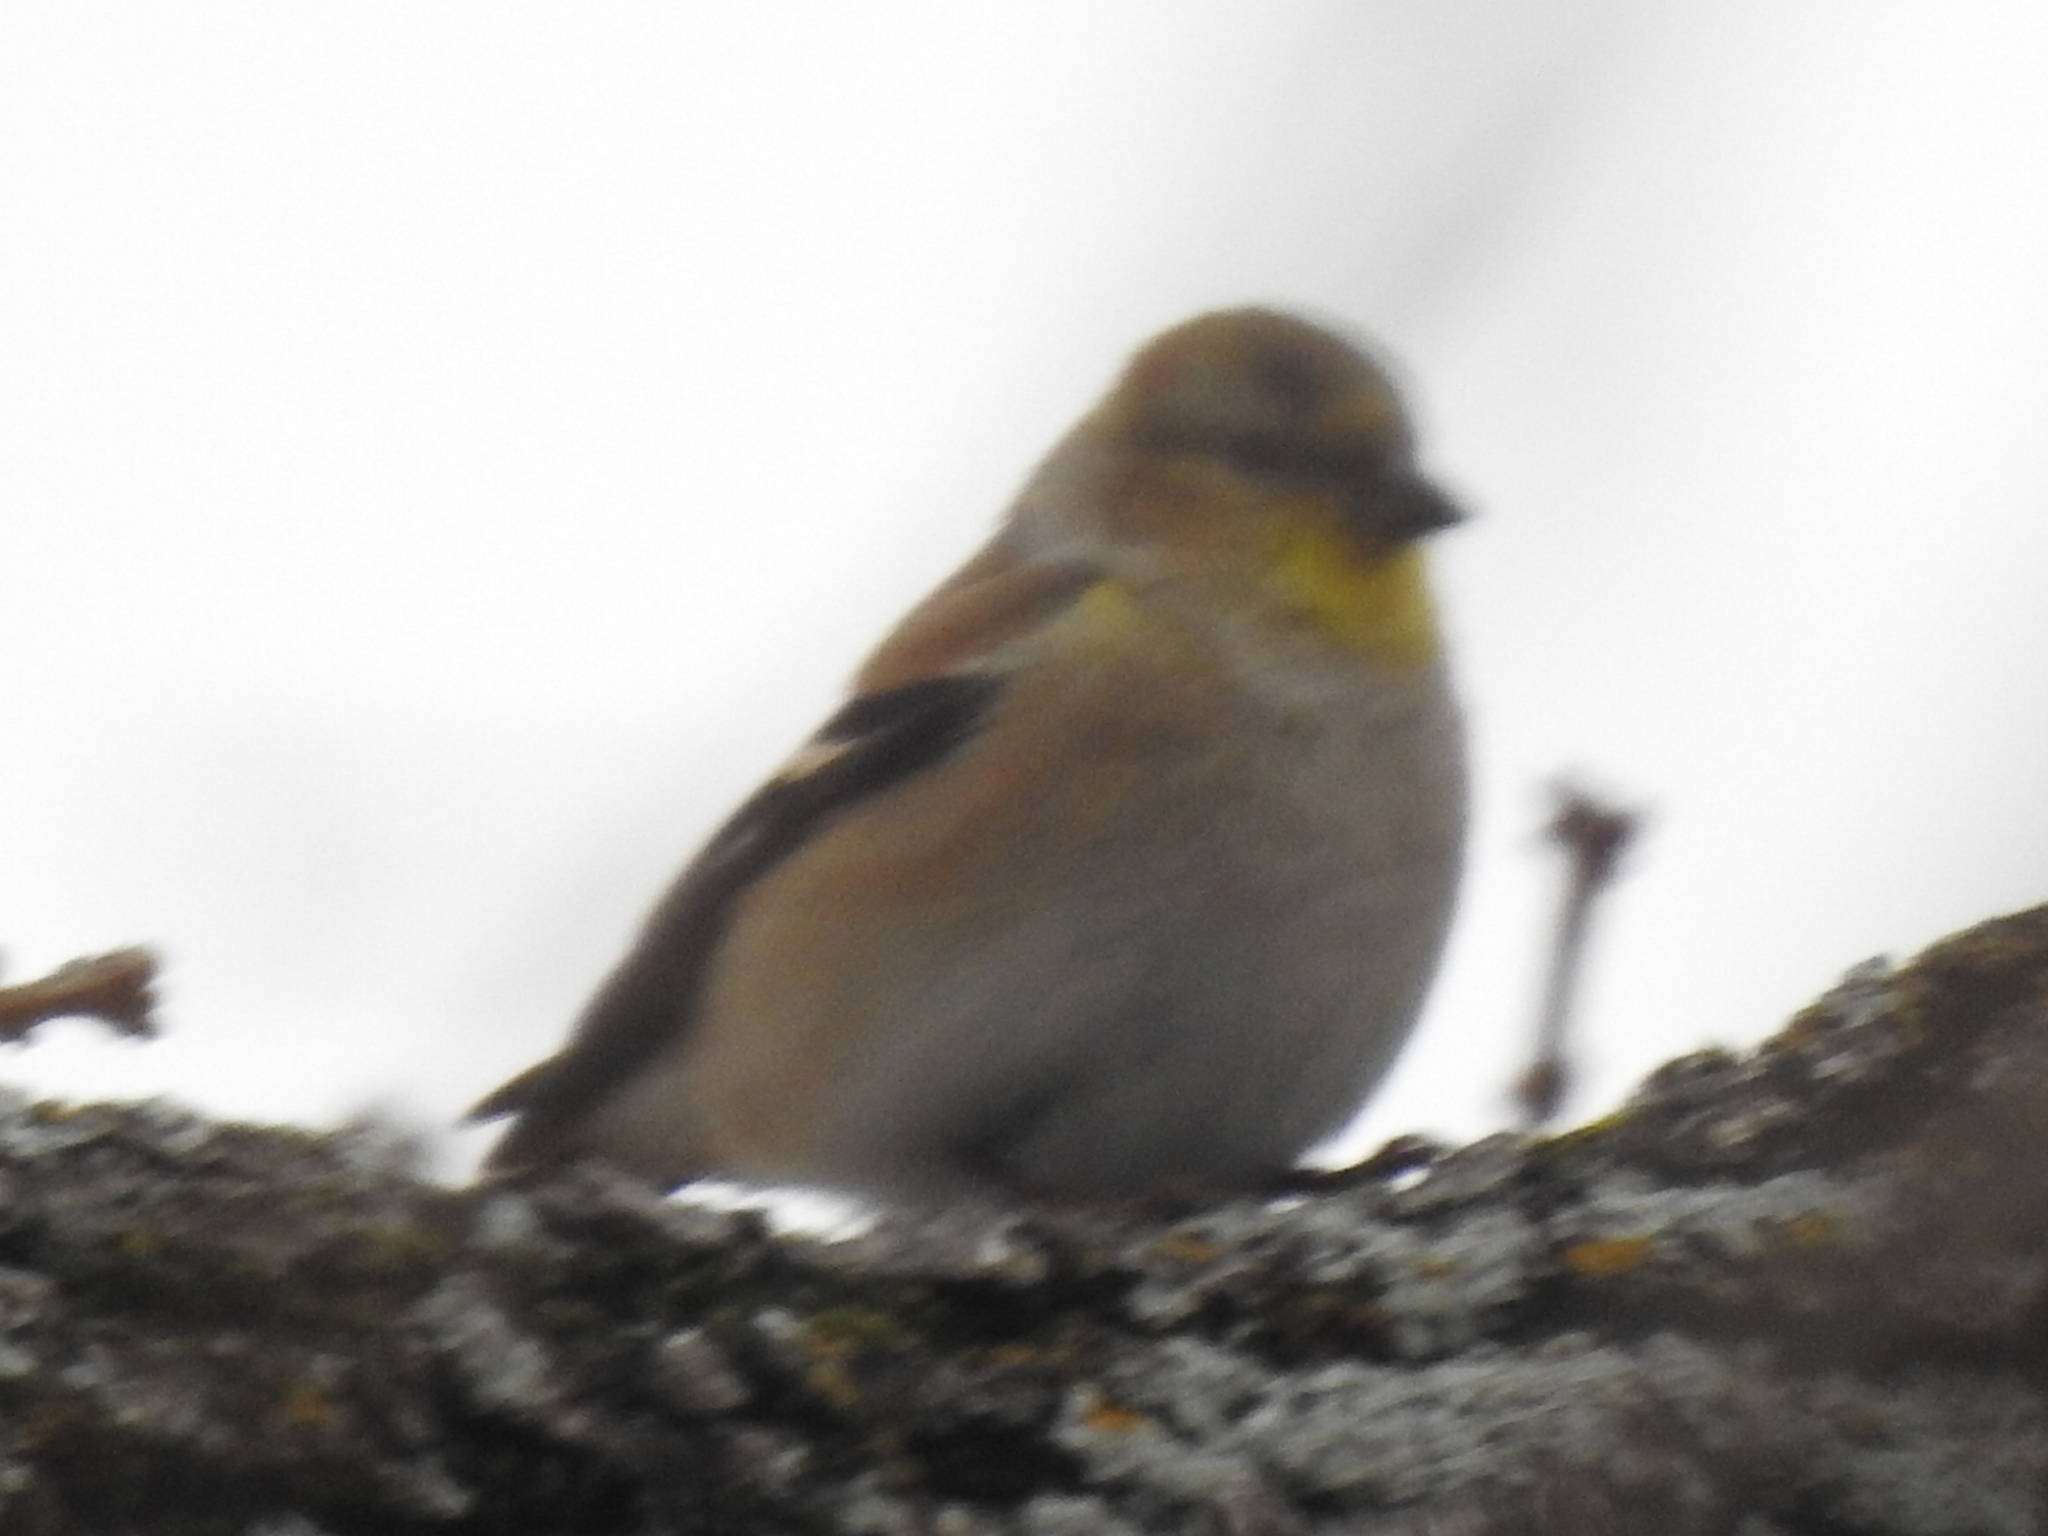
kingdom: Animalia
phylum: Chordata
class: Aves
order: Passeriformes
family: Fringillidae
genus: Spinus
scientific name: Spinus tristis
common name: American goldfinch
